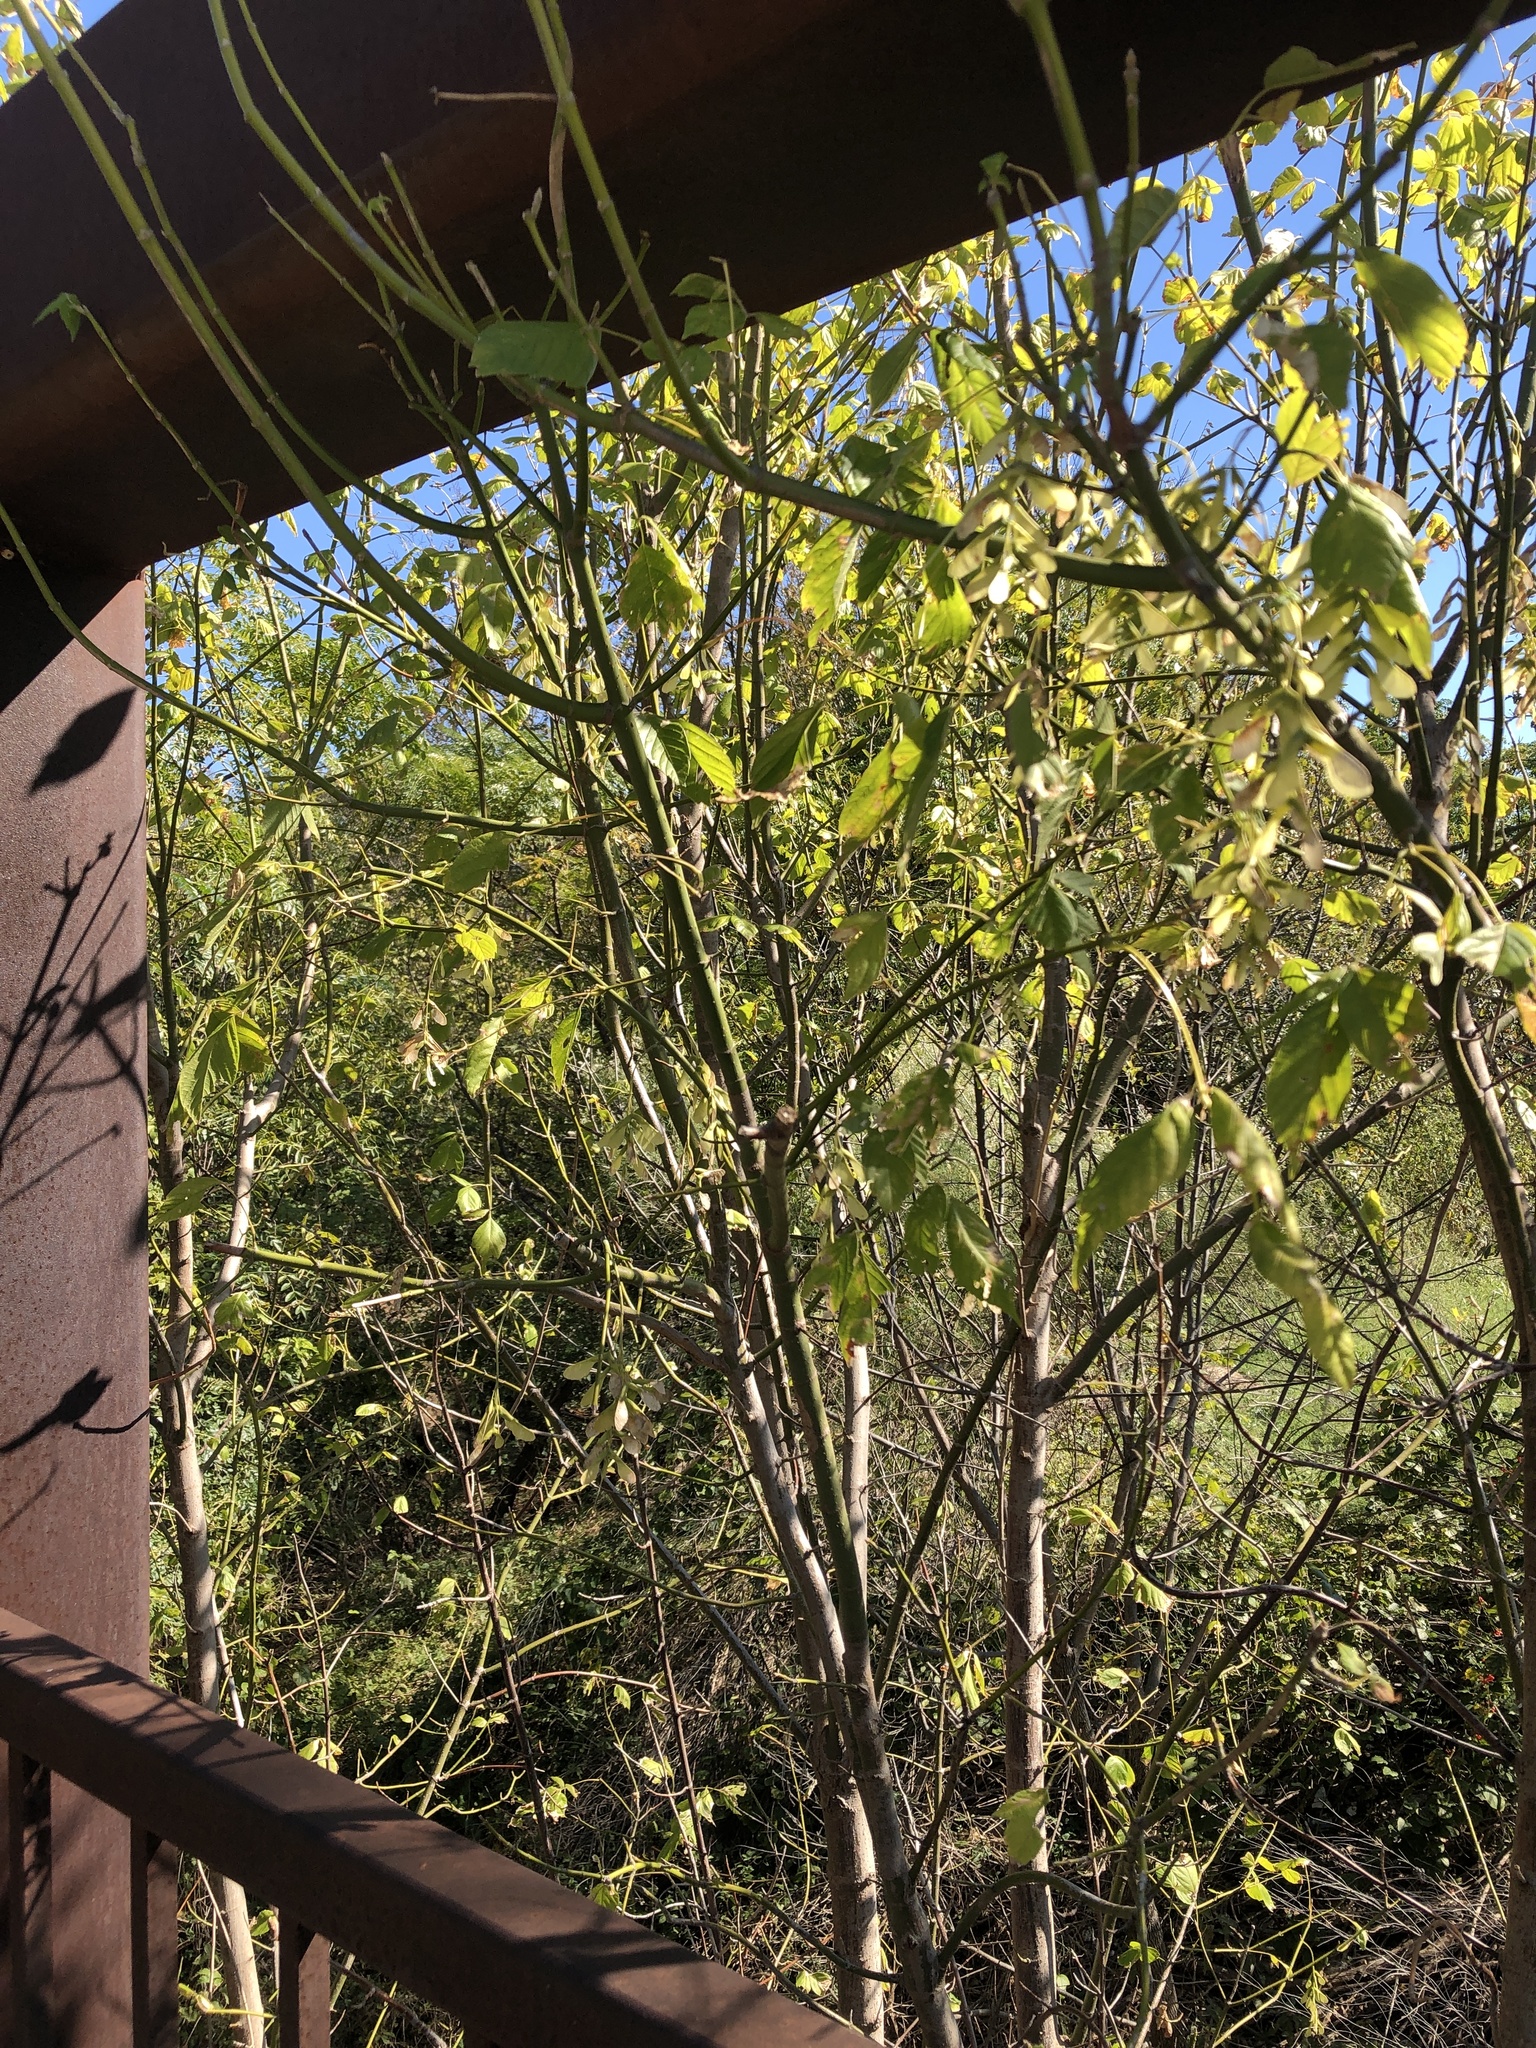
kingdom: Plantae
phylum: Tracheophyta
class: Magnoliopsida
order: Sapindales
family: Sapindaceae
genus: Acer
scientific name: Acer negundo
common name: Ashleaf maple
